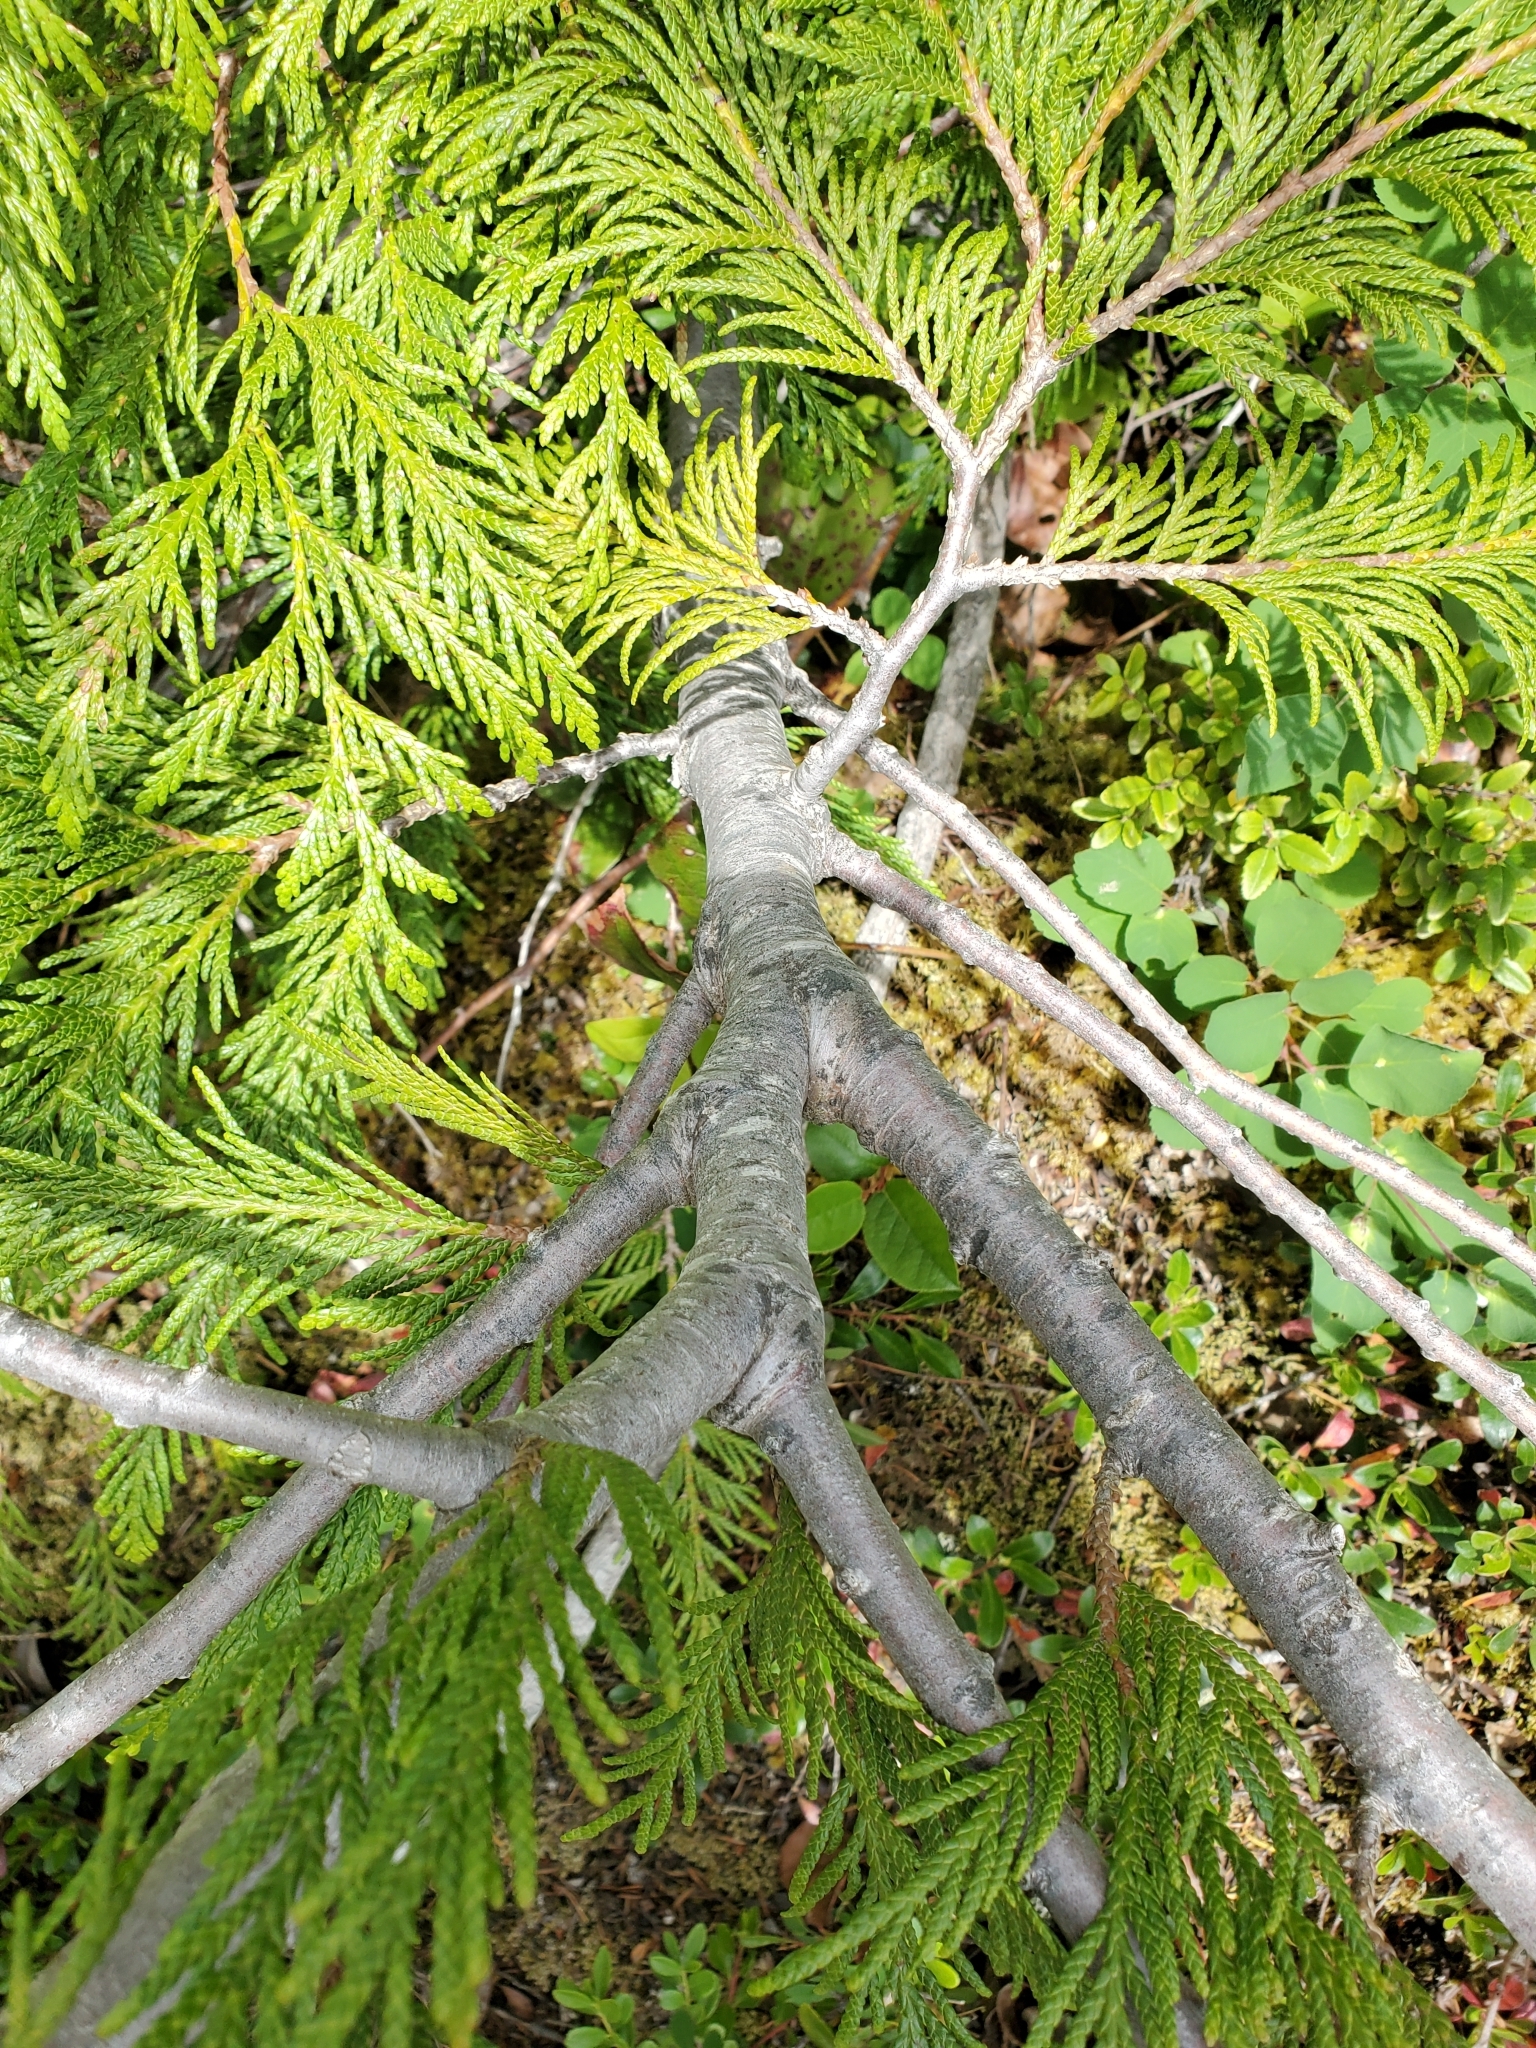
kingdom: Plantae
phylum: Tracheophyta
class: Pinopsida
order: Pinales
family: Cupressaceae
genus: Thuja
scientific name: Thuja plicata
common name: Western red-cedar
